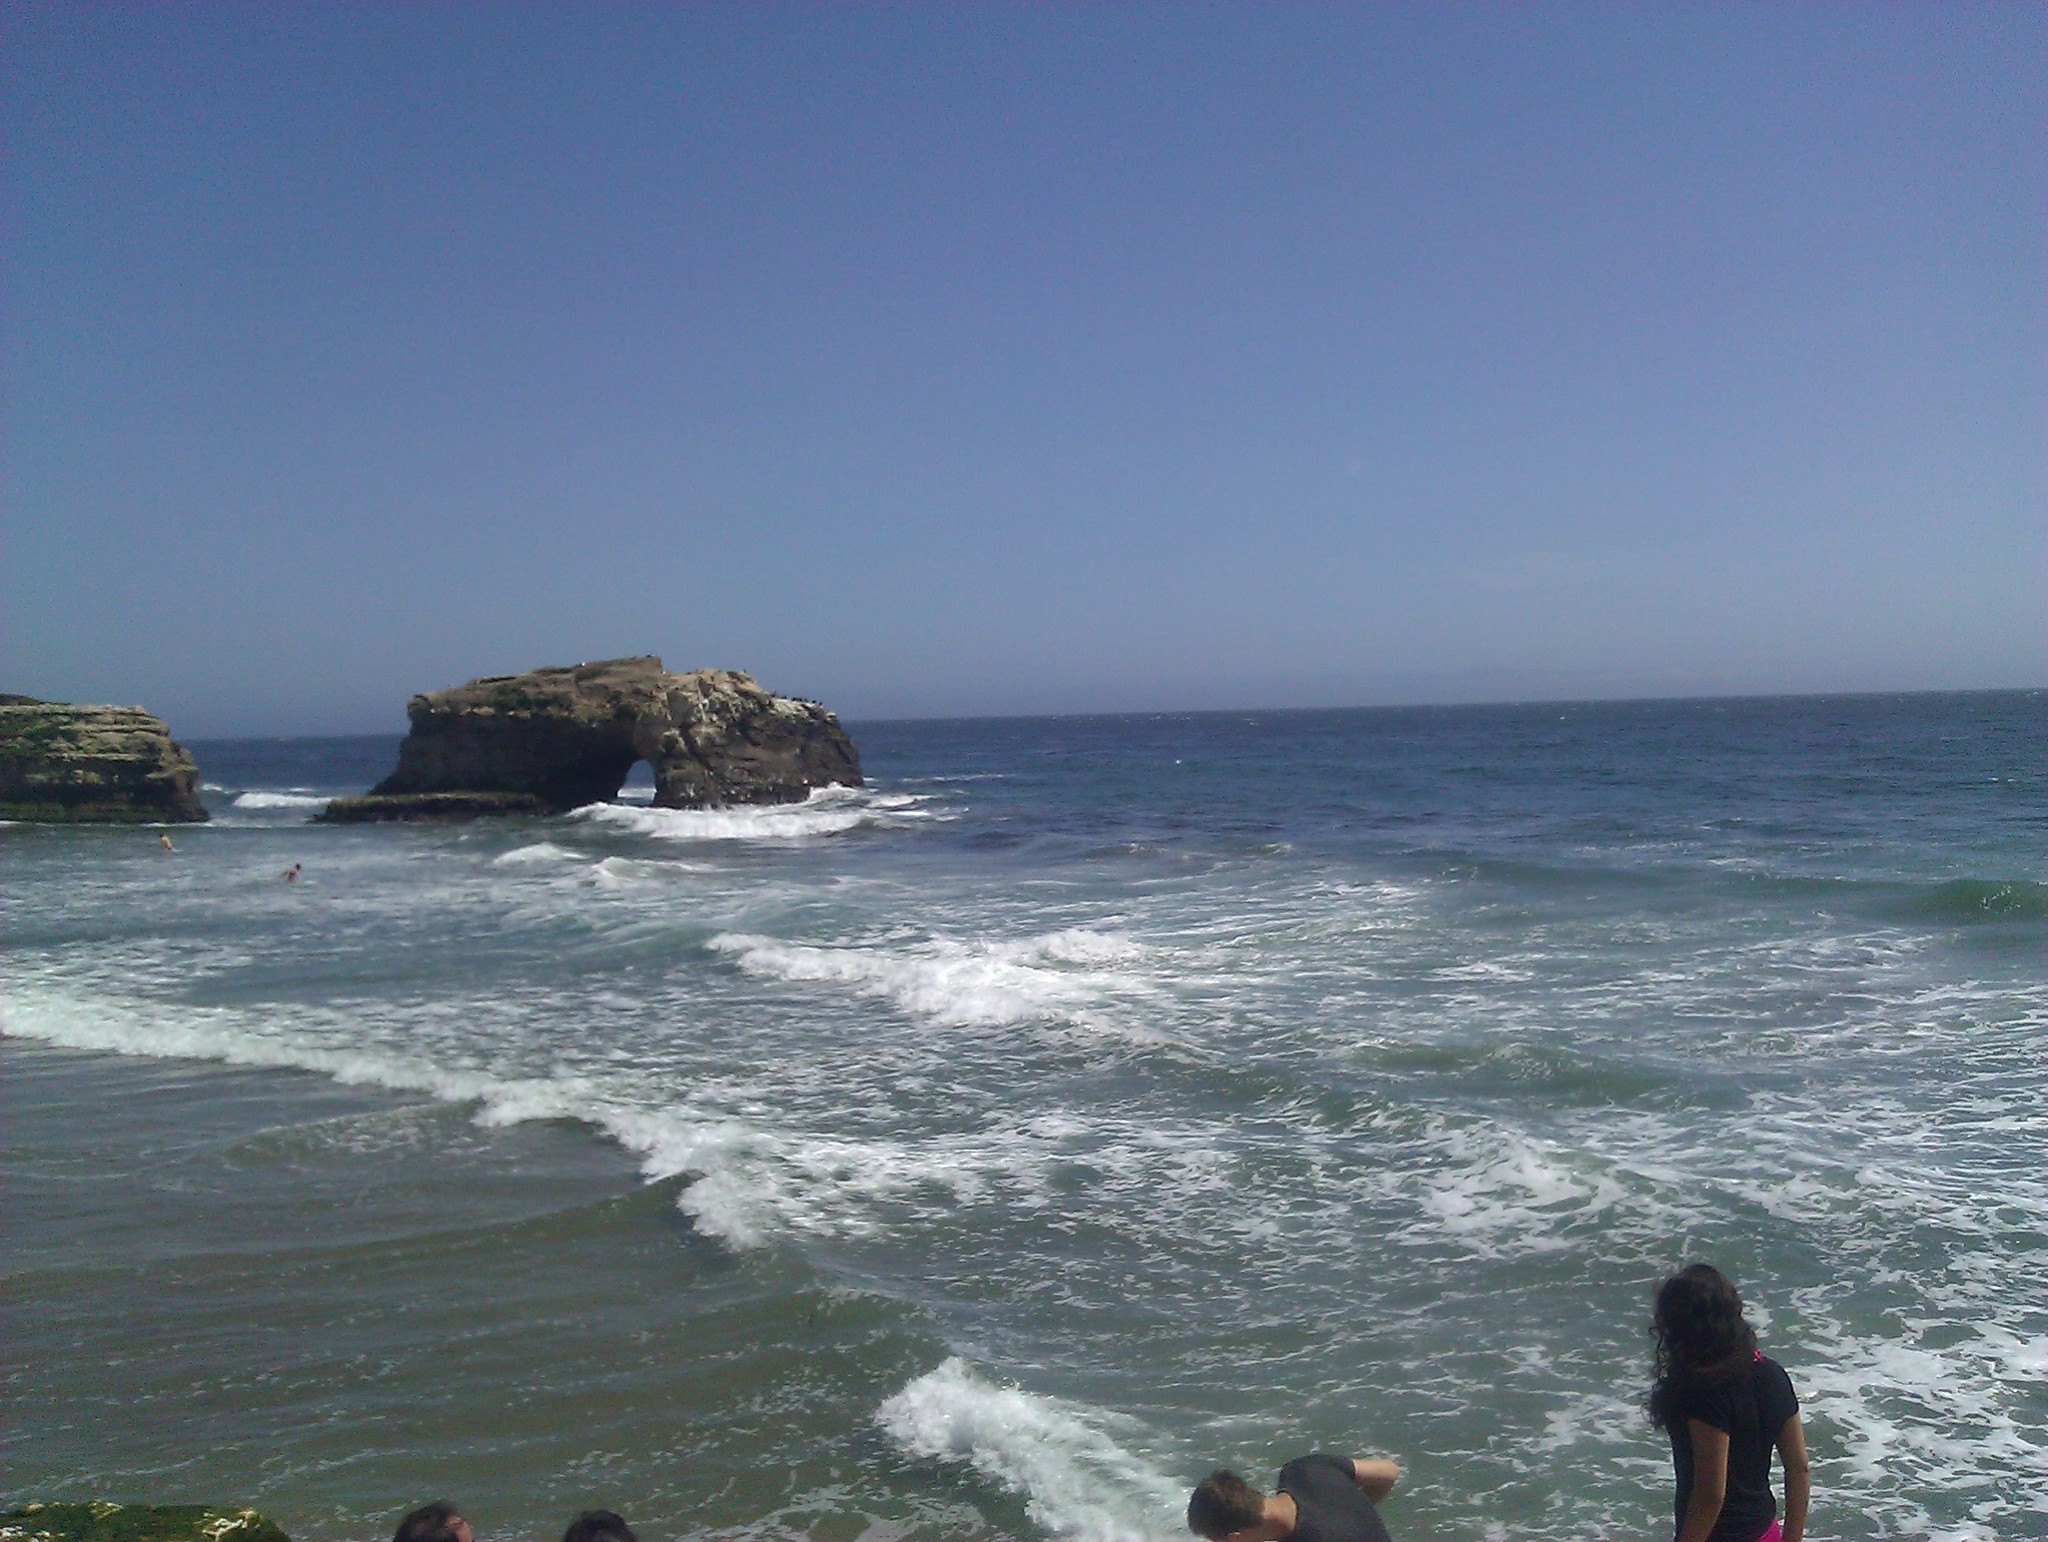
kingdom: Animalia
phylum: Chordata
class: Aves
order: Pelecaniformes
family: Pelecanidae
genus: Pelecanus
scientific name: Pelecanus occidentalis
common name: Brown pelican
